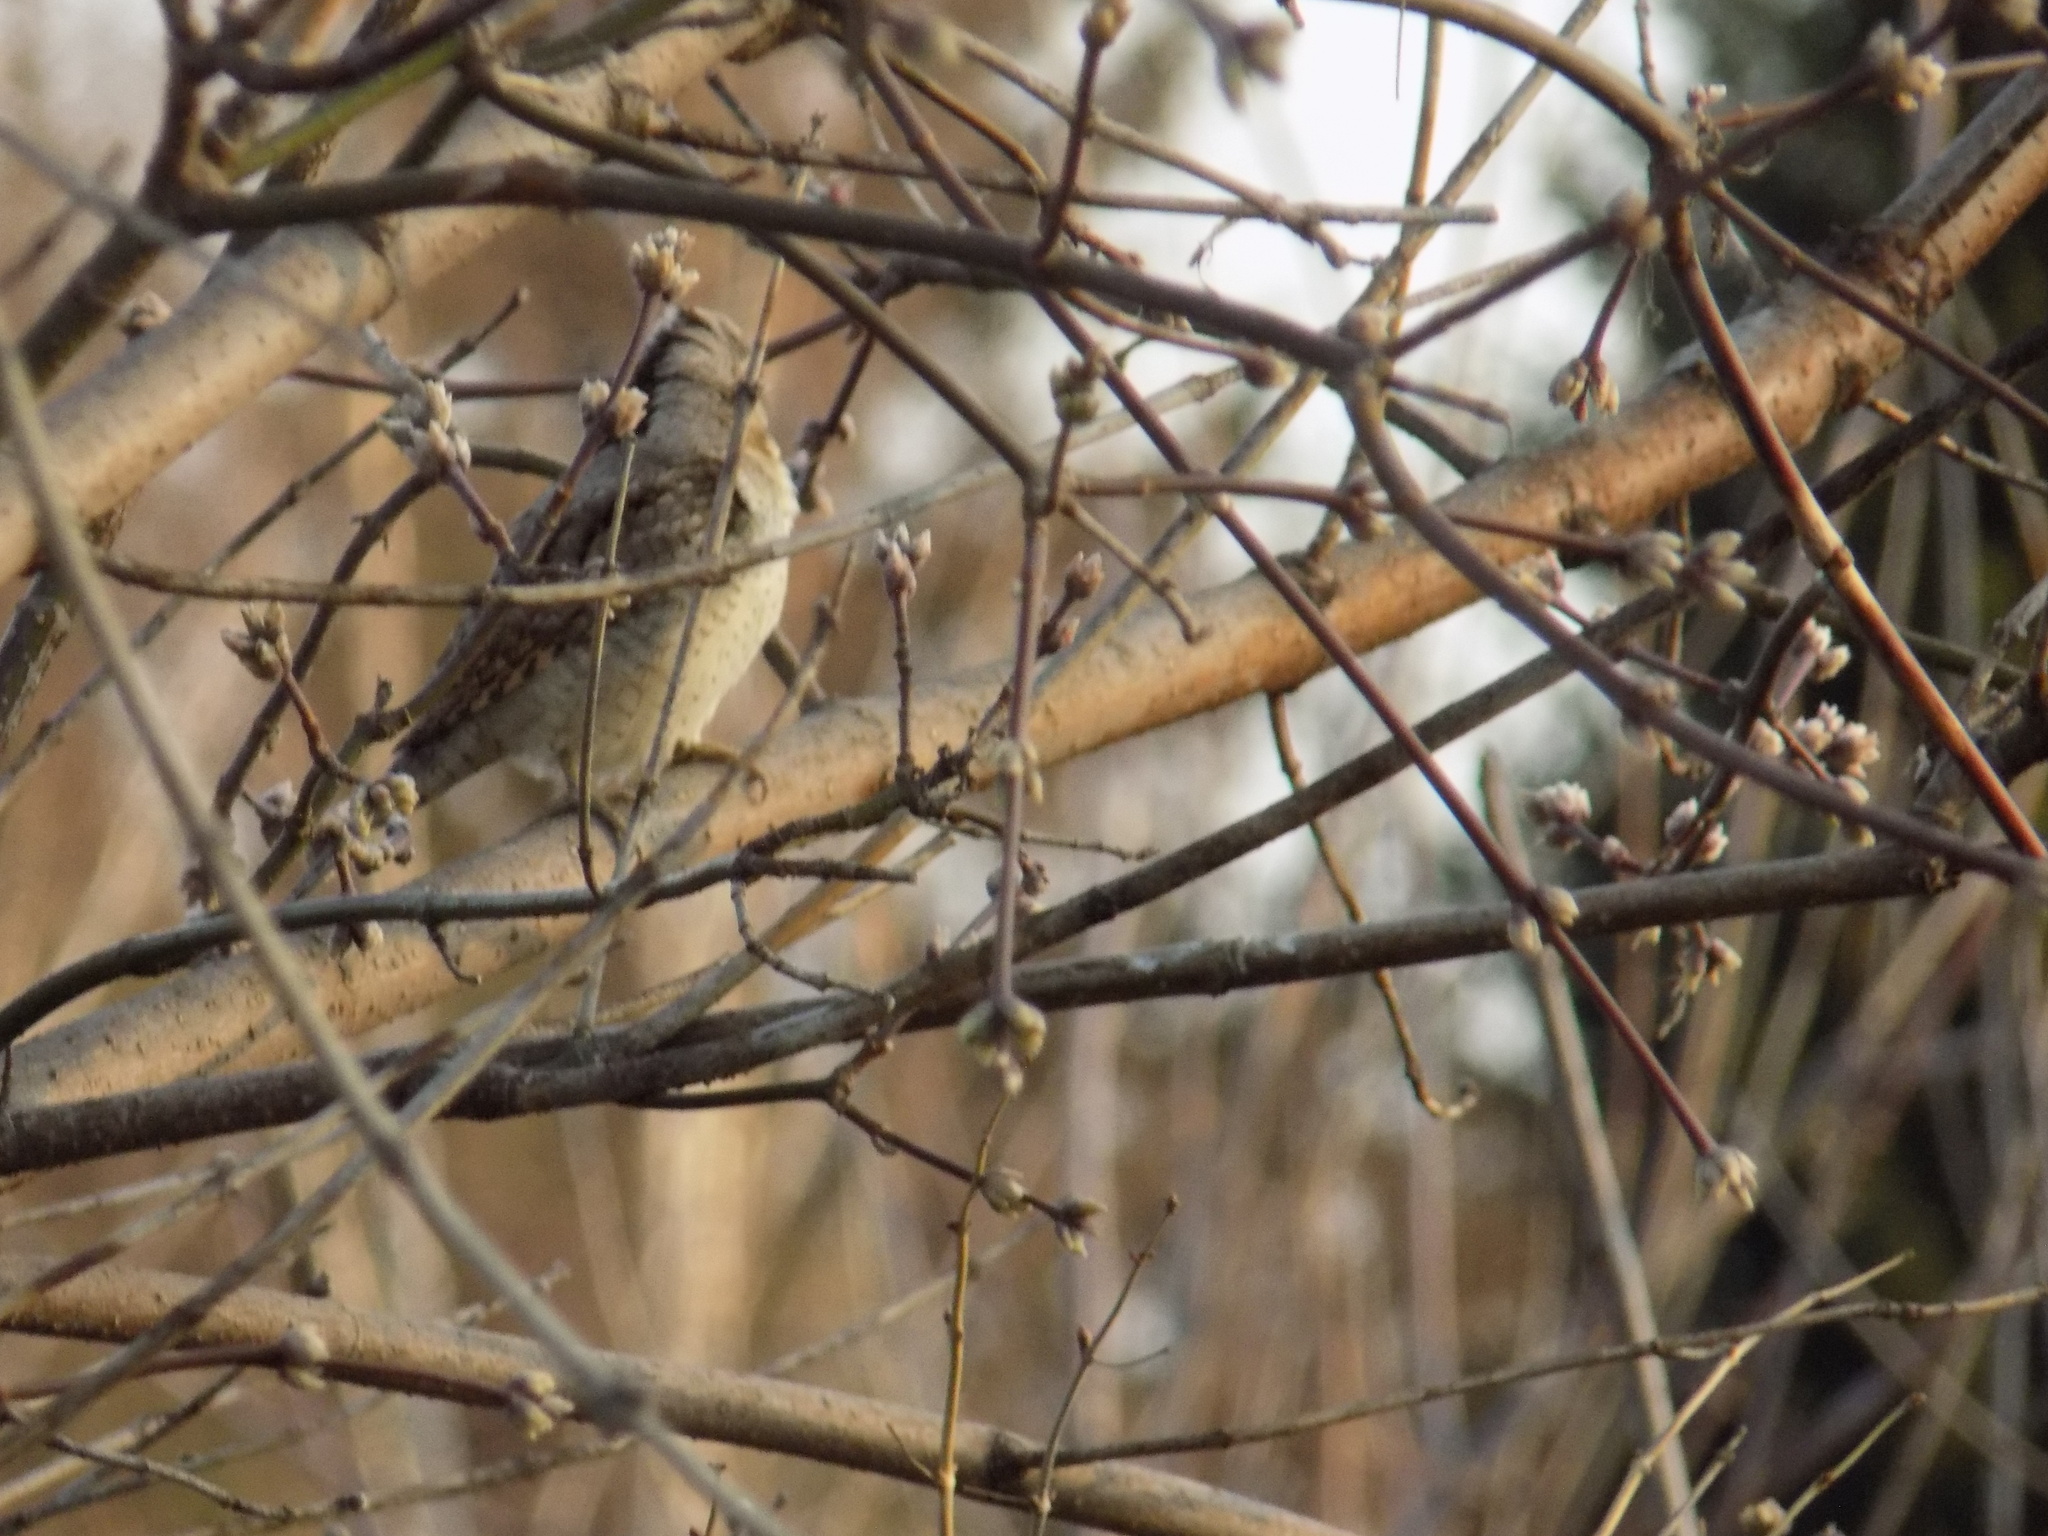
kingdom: Animalia
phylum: Chordata
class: Aves
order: Piciformes
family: Picidae
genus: Jynx
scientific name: Jynx torquilla
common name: Eurasian wryneck
